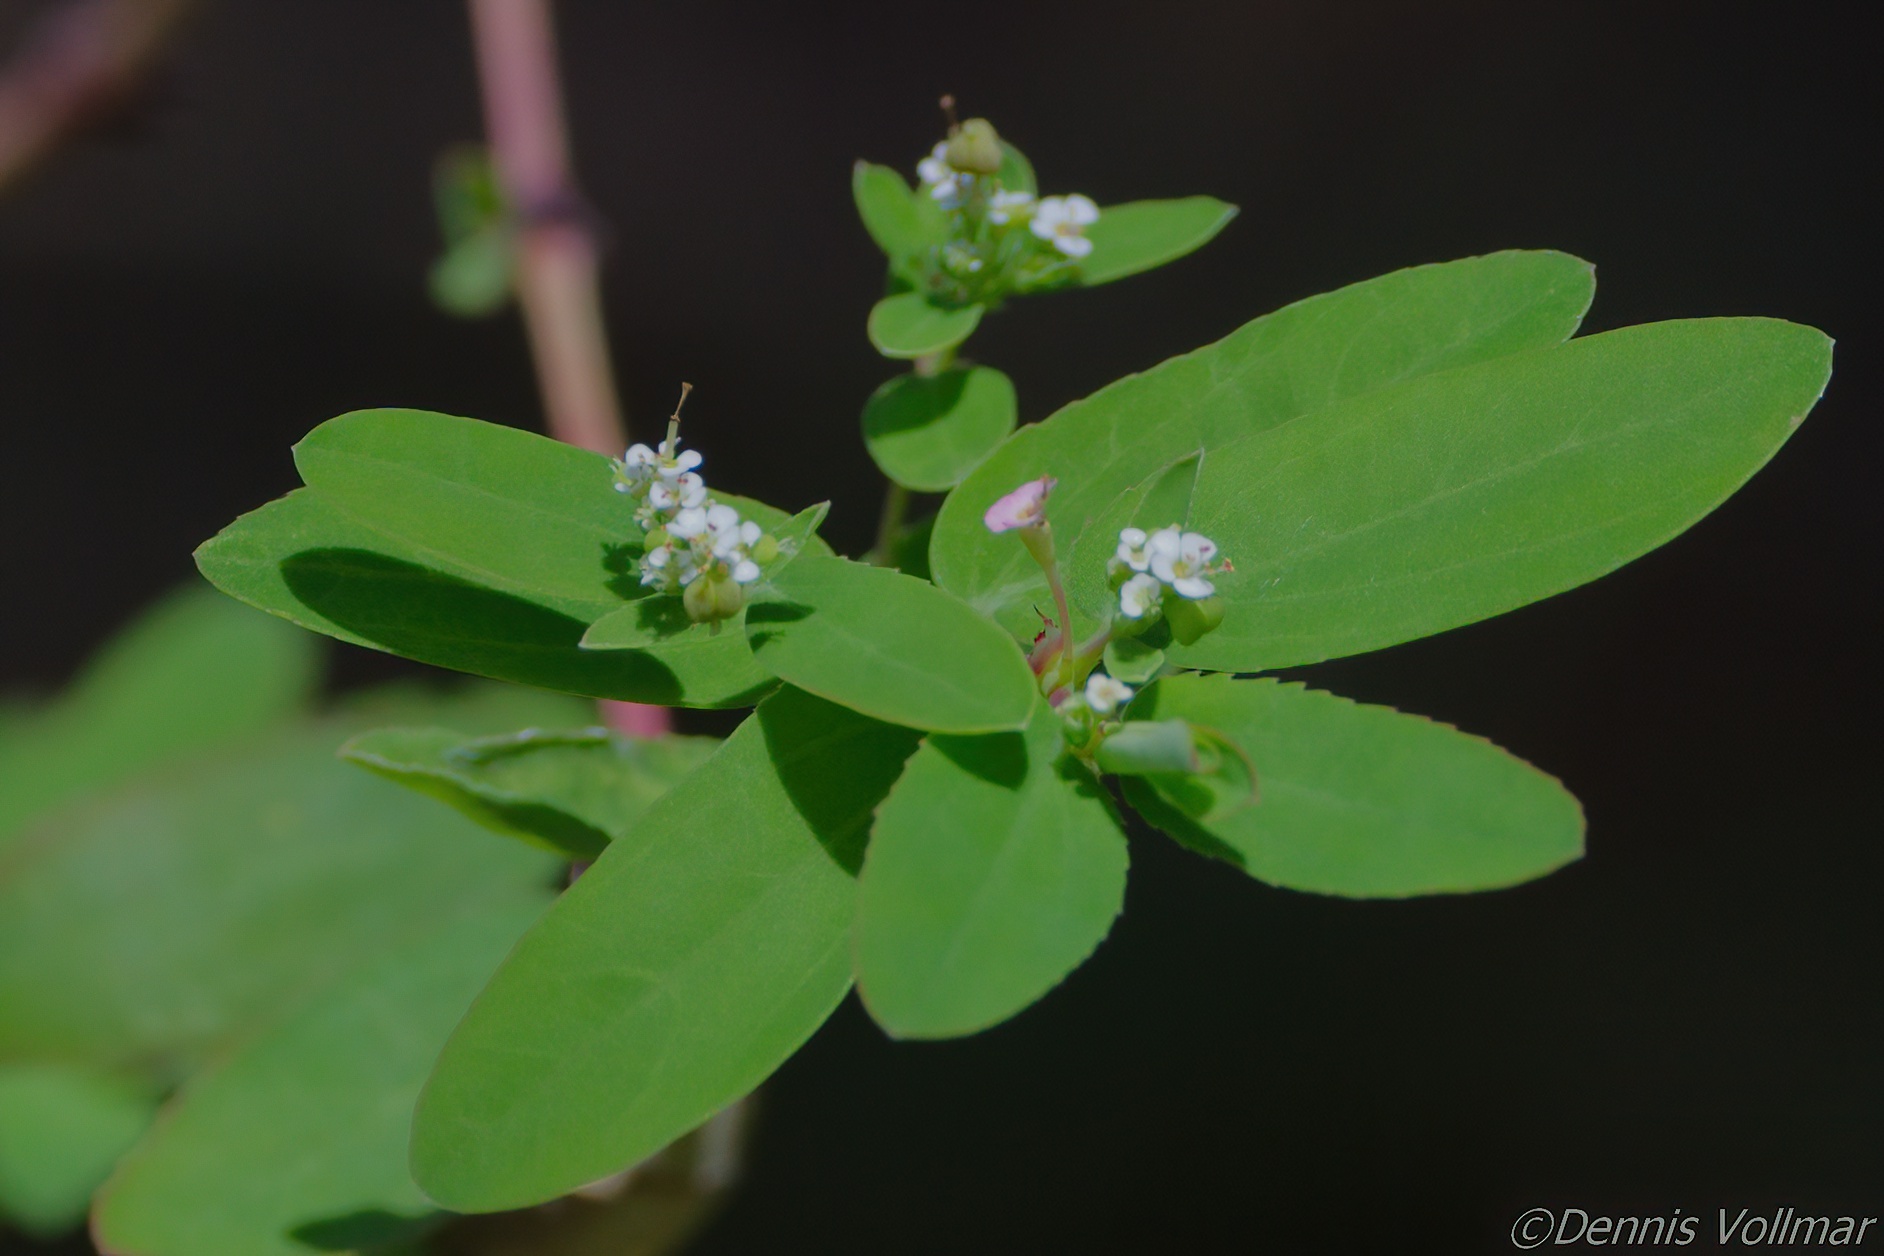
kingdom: Plantae
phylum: Tracheophyta
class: Magnoliopsida
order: Malpighiales
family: Euphorbiaceae
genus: Euphorbia
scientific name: Euphorbia hypericifolia
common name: Graceful sandmat
